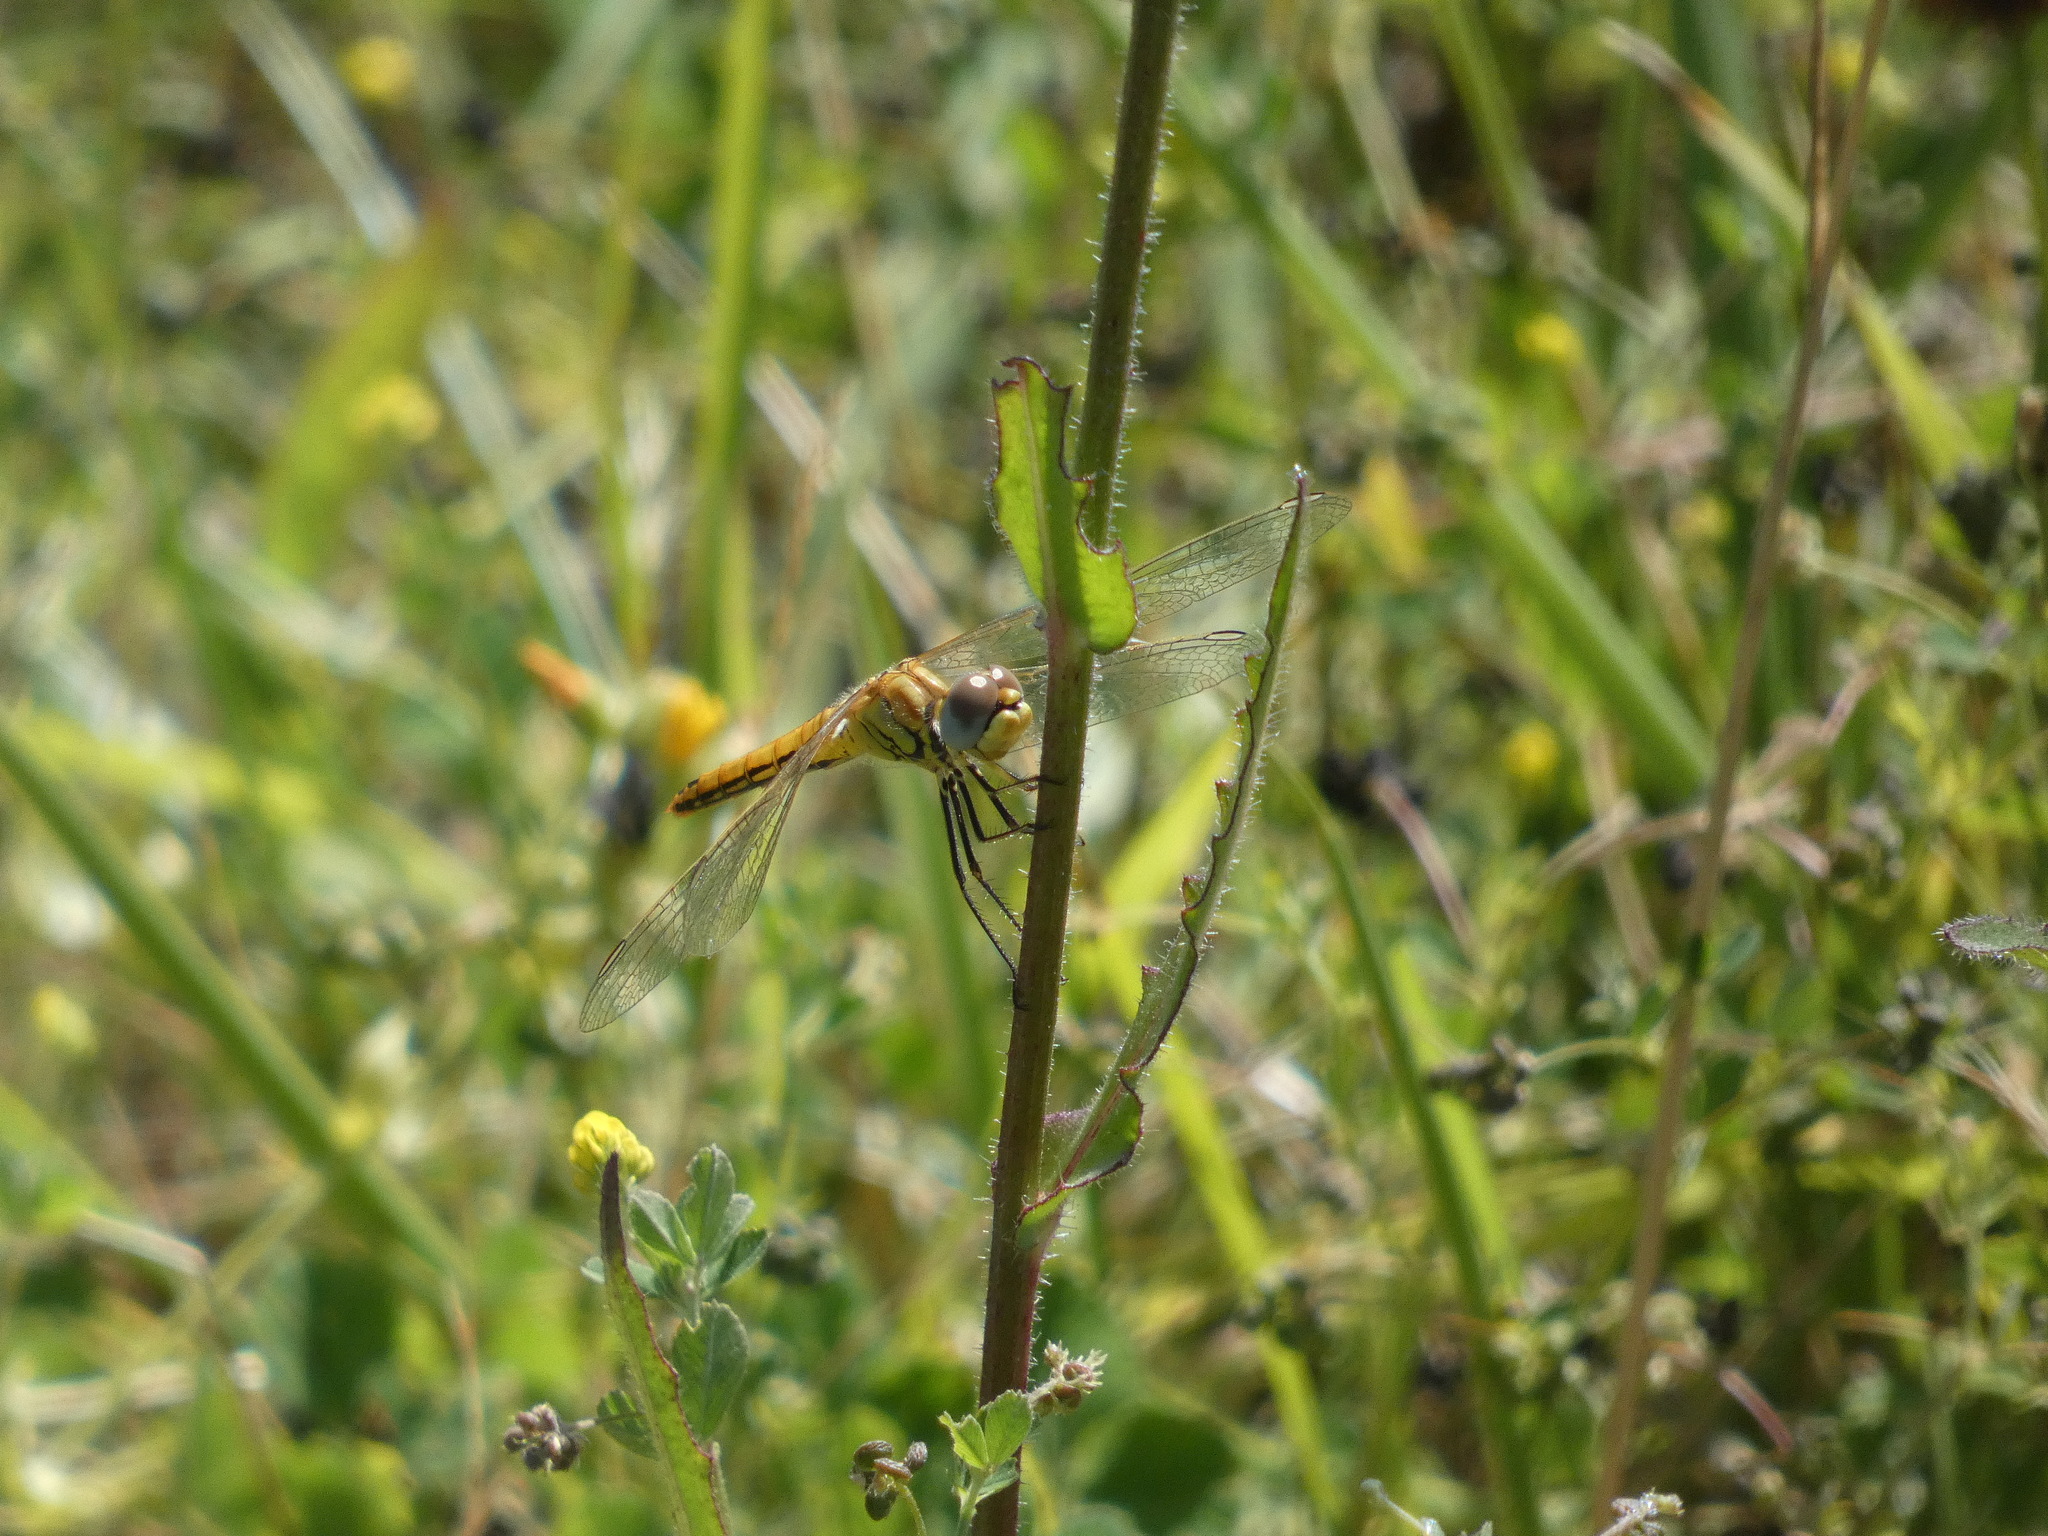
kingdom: Animalia
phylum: Arthropoda
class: Insecta
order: Odonata
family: Libellulidae
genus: Sympetrum
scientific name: Sympetrum fonscolombii
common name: Red-veined darter
